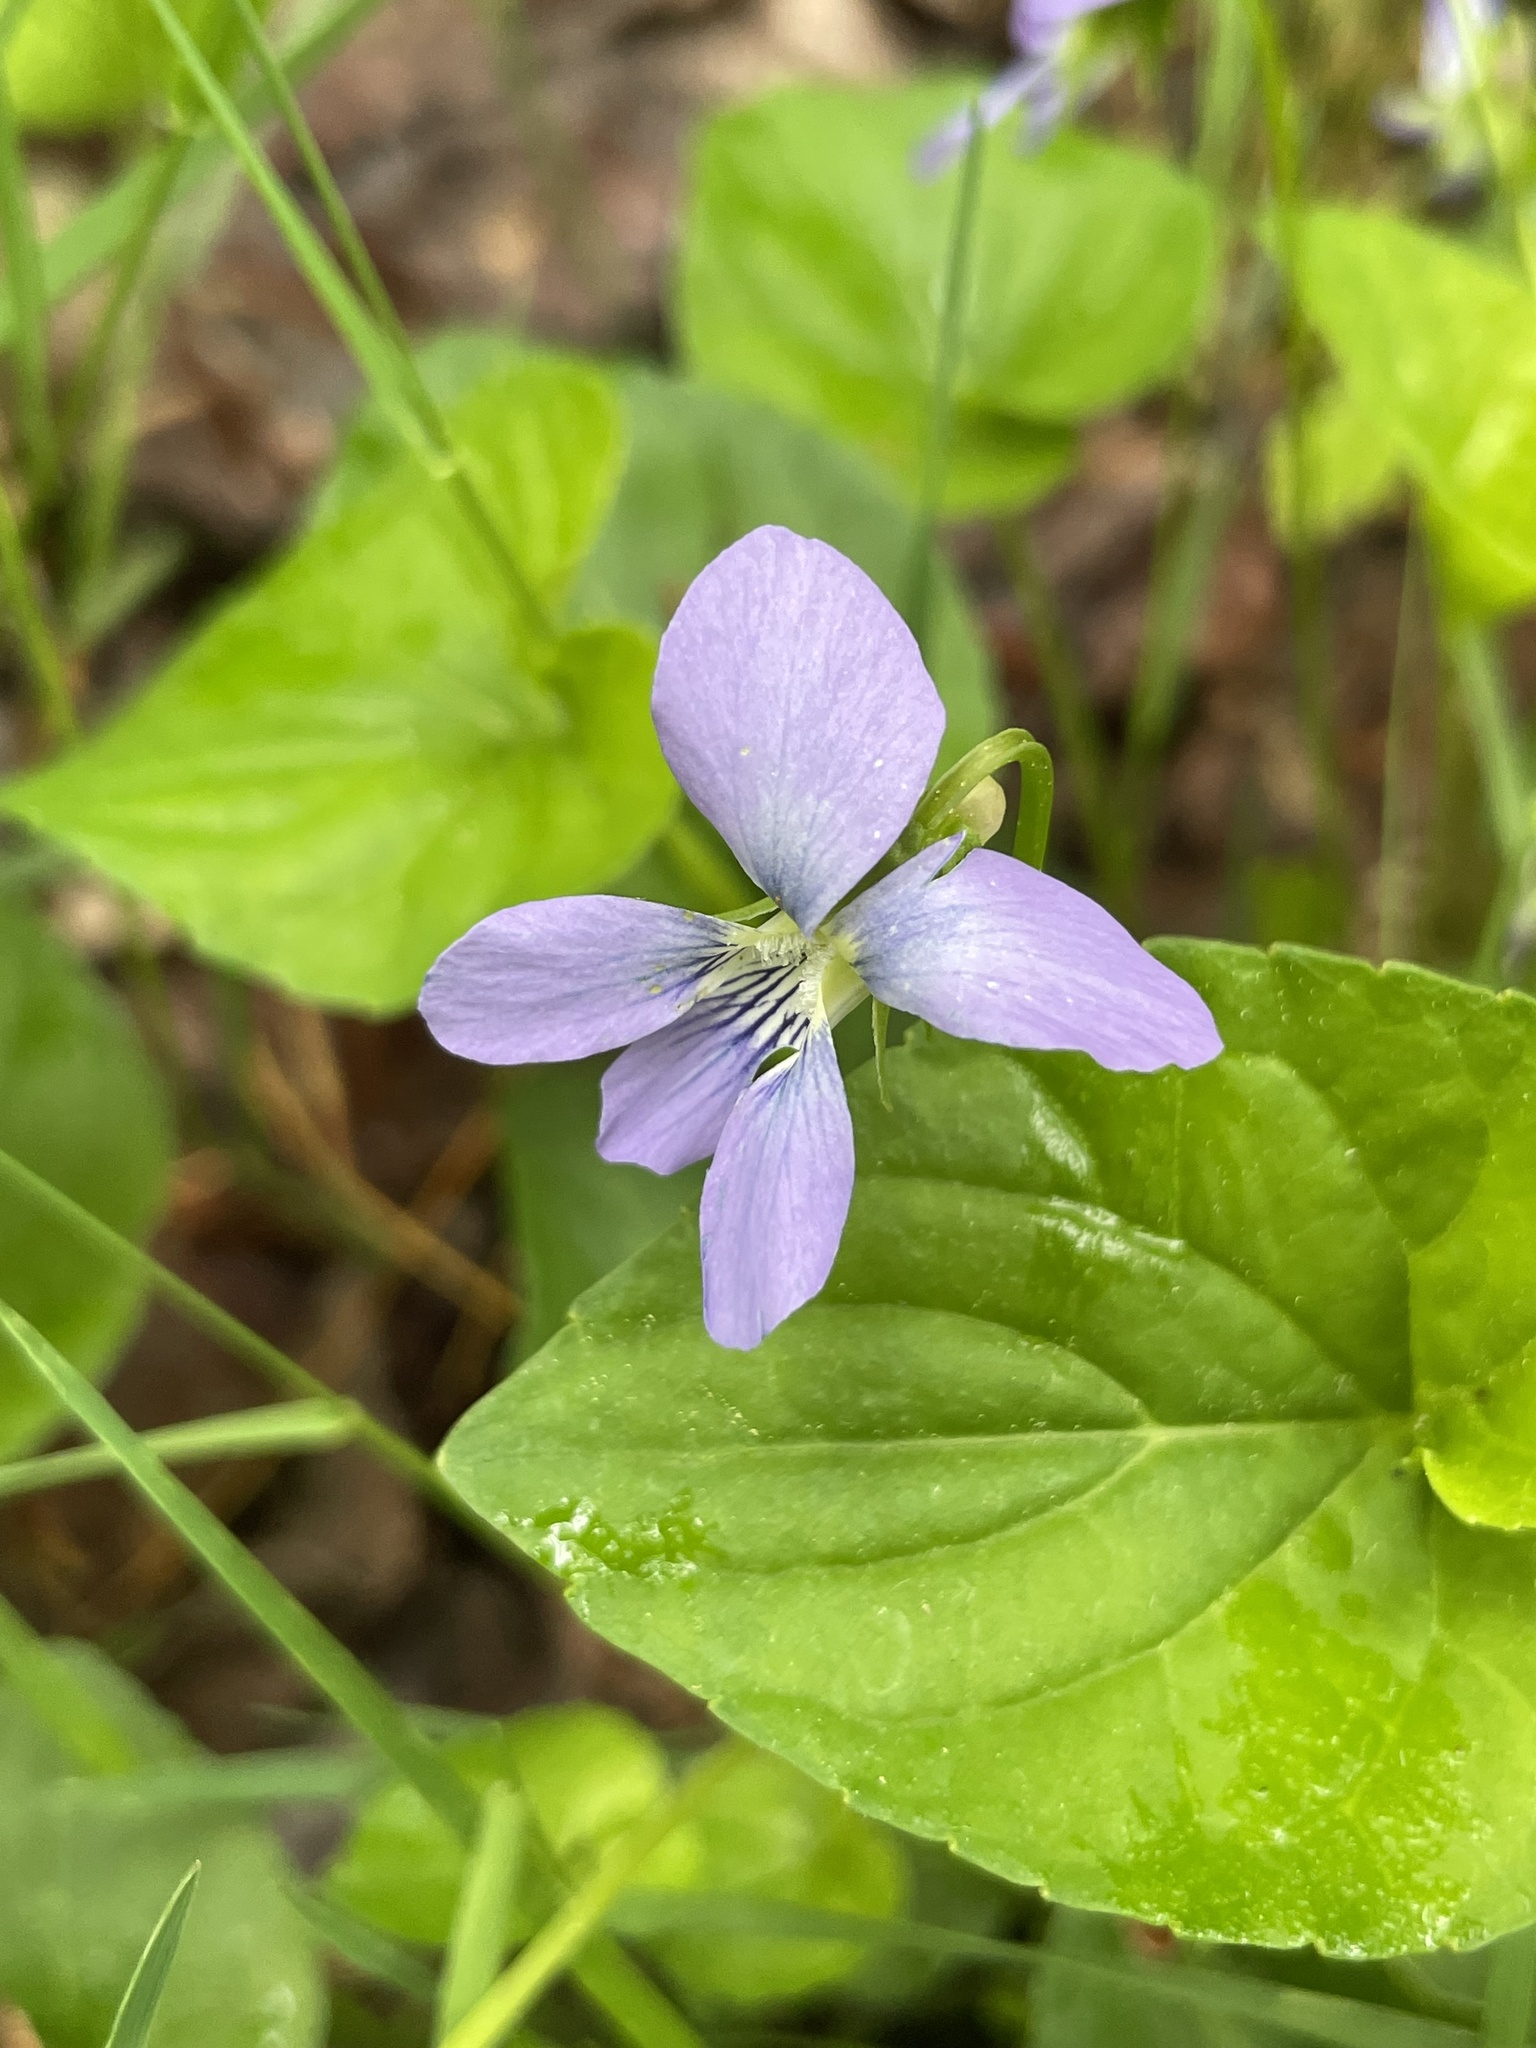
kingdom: Plantae
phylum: Tracheophyta
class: Magnoliopsida
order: Malpighiales
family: Violaceae
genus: Viola
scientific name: Viola cucullata
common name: Marsh blue violet
